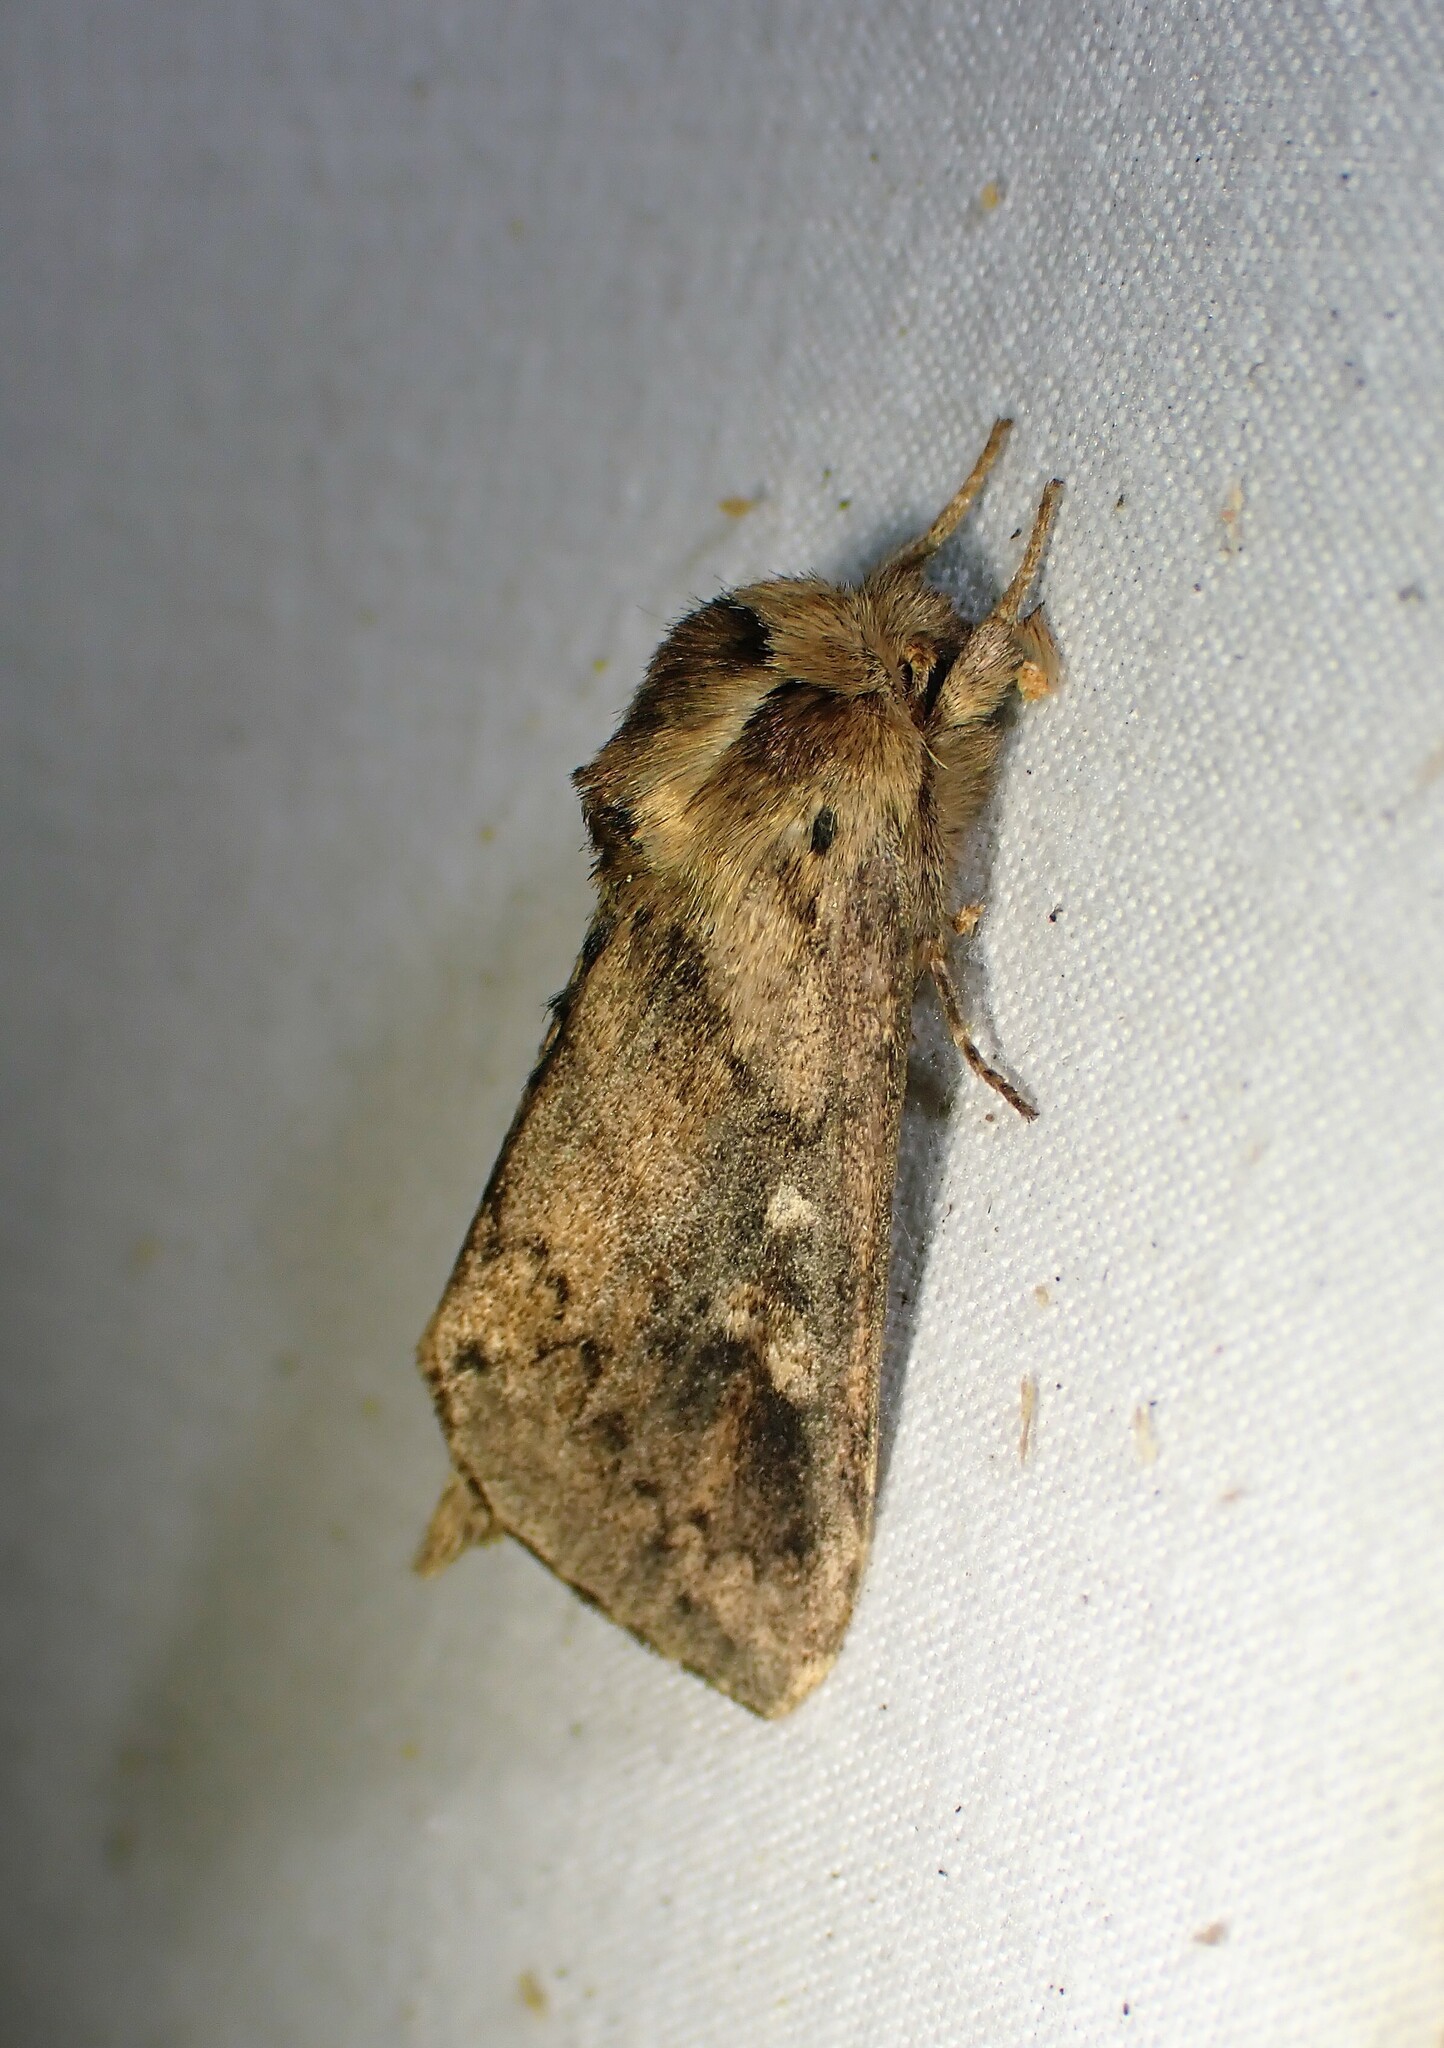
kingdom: Animalia
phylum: Arthropoda
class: Insecta
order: Lepidoptera
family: Noctuidae
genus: Bellura
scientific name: Bellura vulnifica
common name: Black-tailed diver moth
